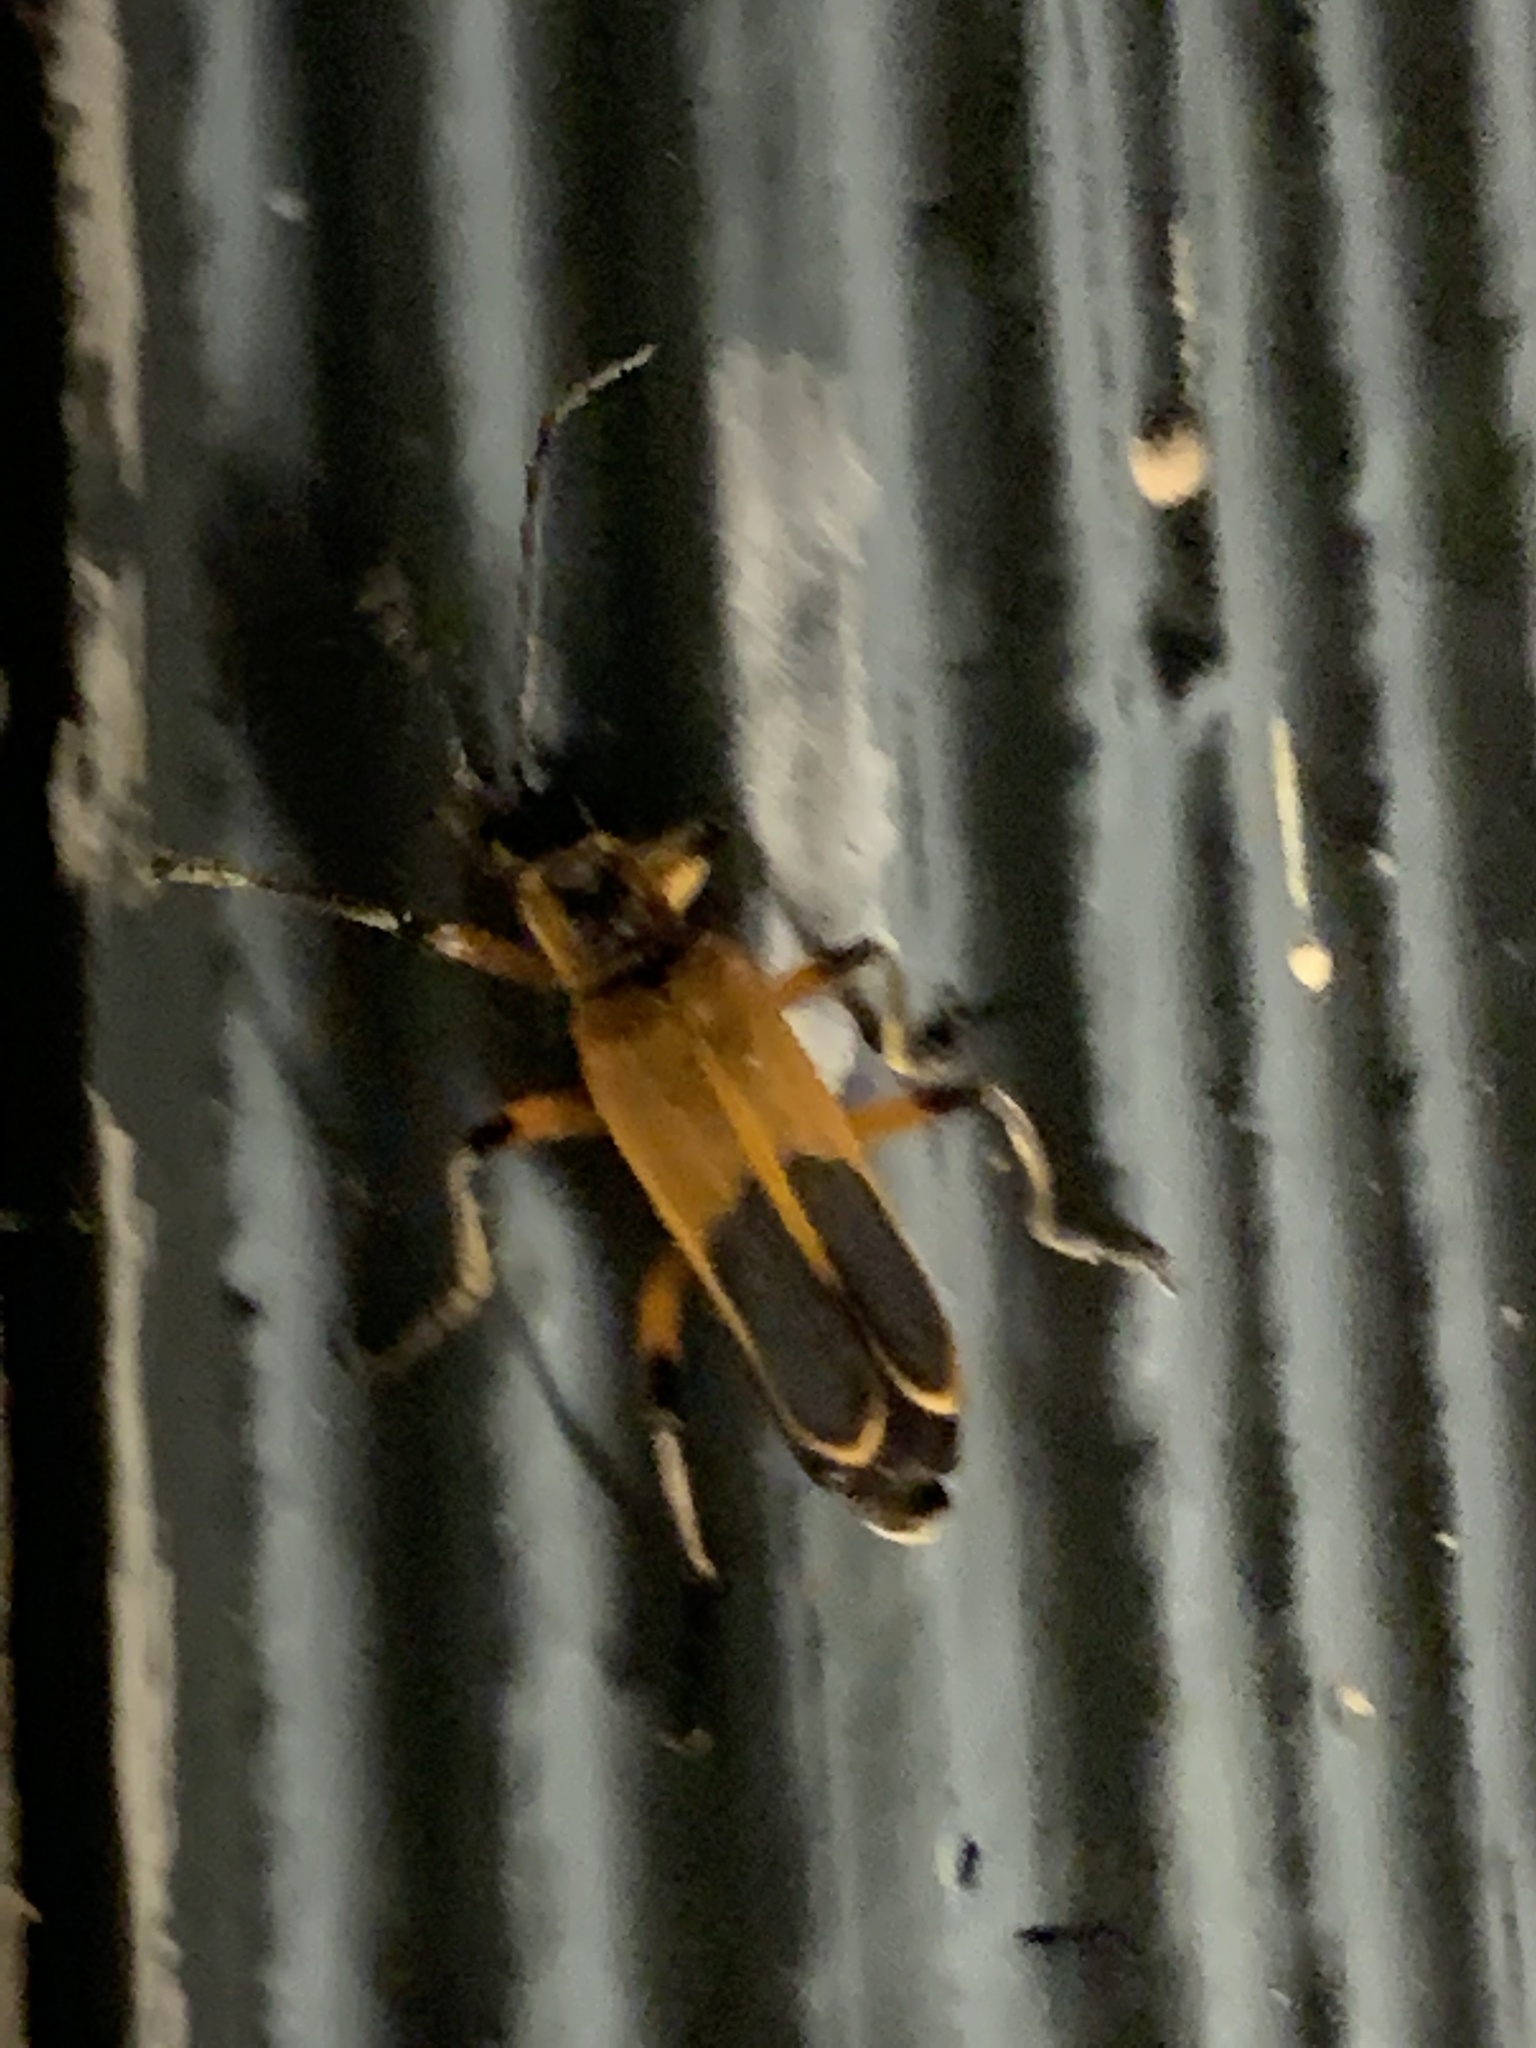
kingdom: Animalia
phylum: Arthropoda
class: Insecta
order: Coleoptera
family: Cantharidae
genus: Chauliognathus
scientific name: Chauliognathus marginatus
